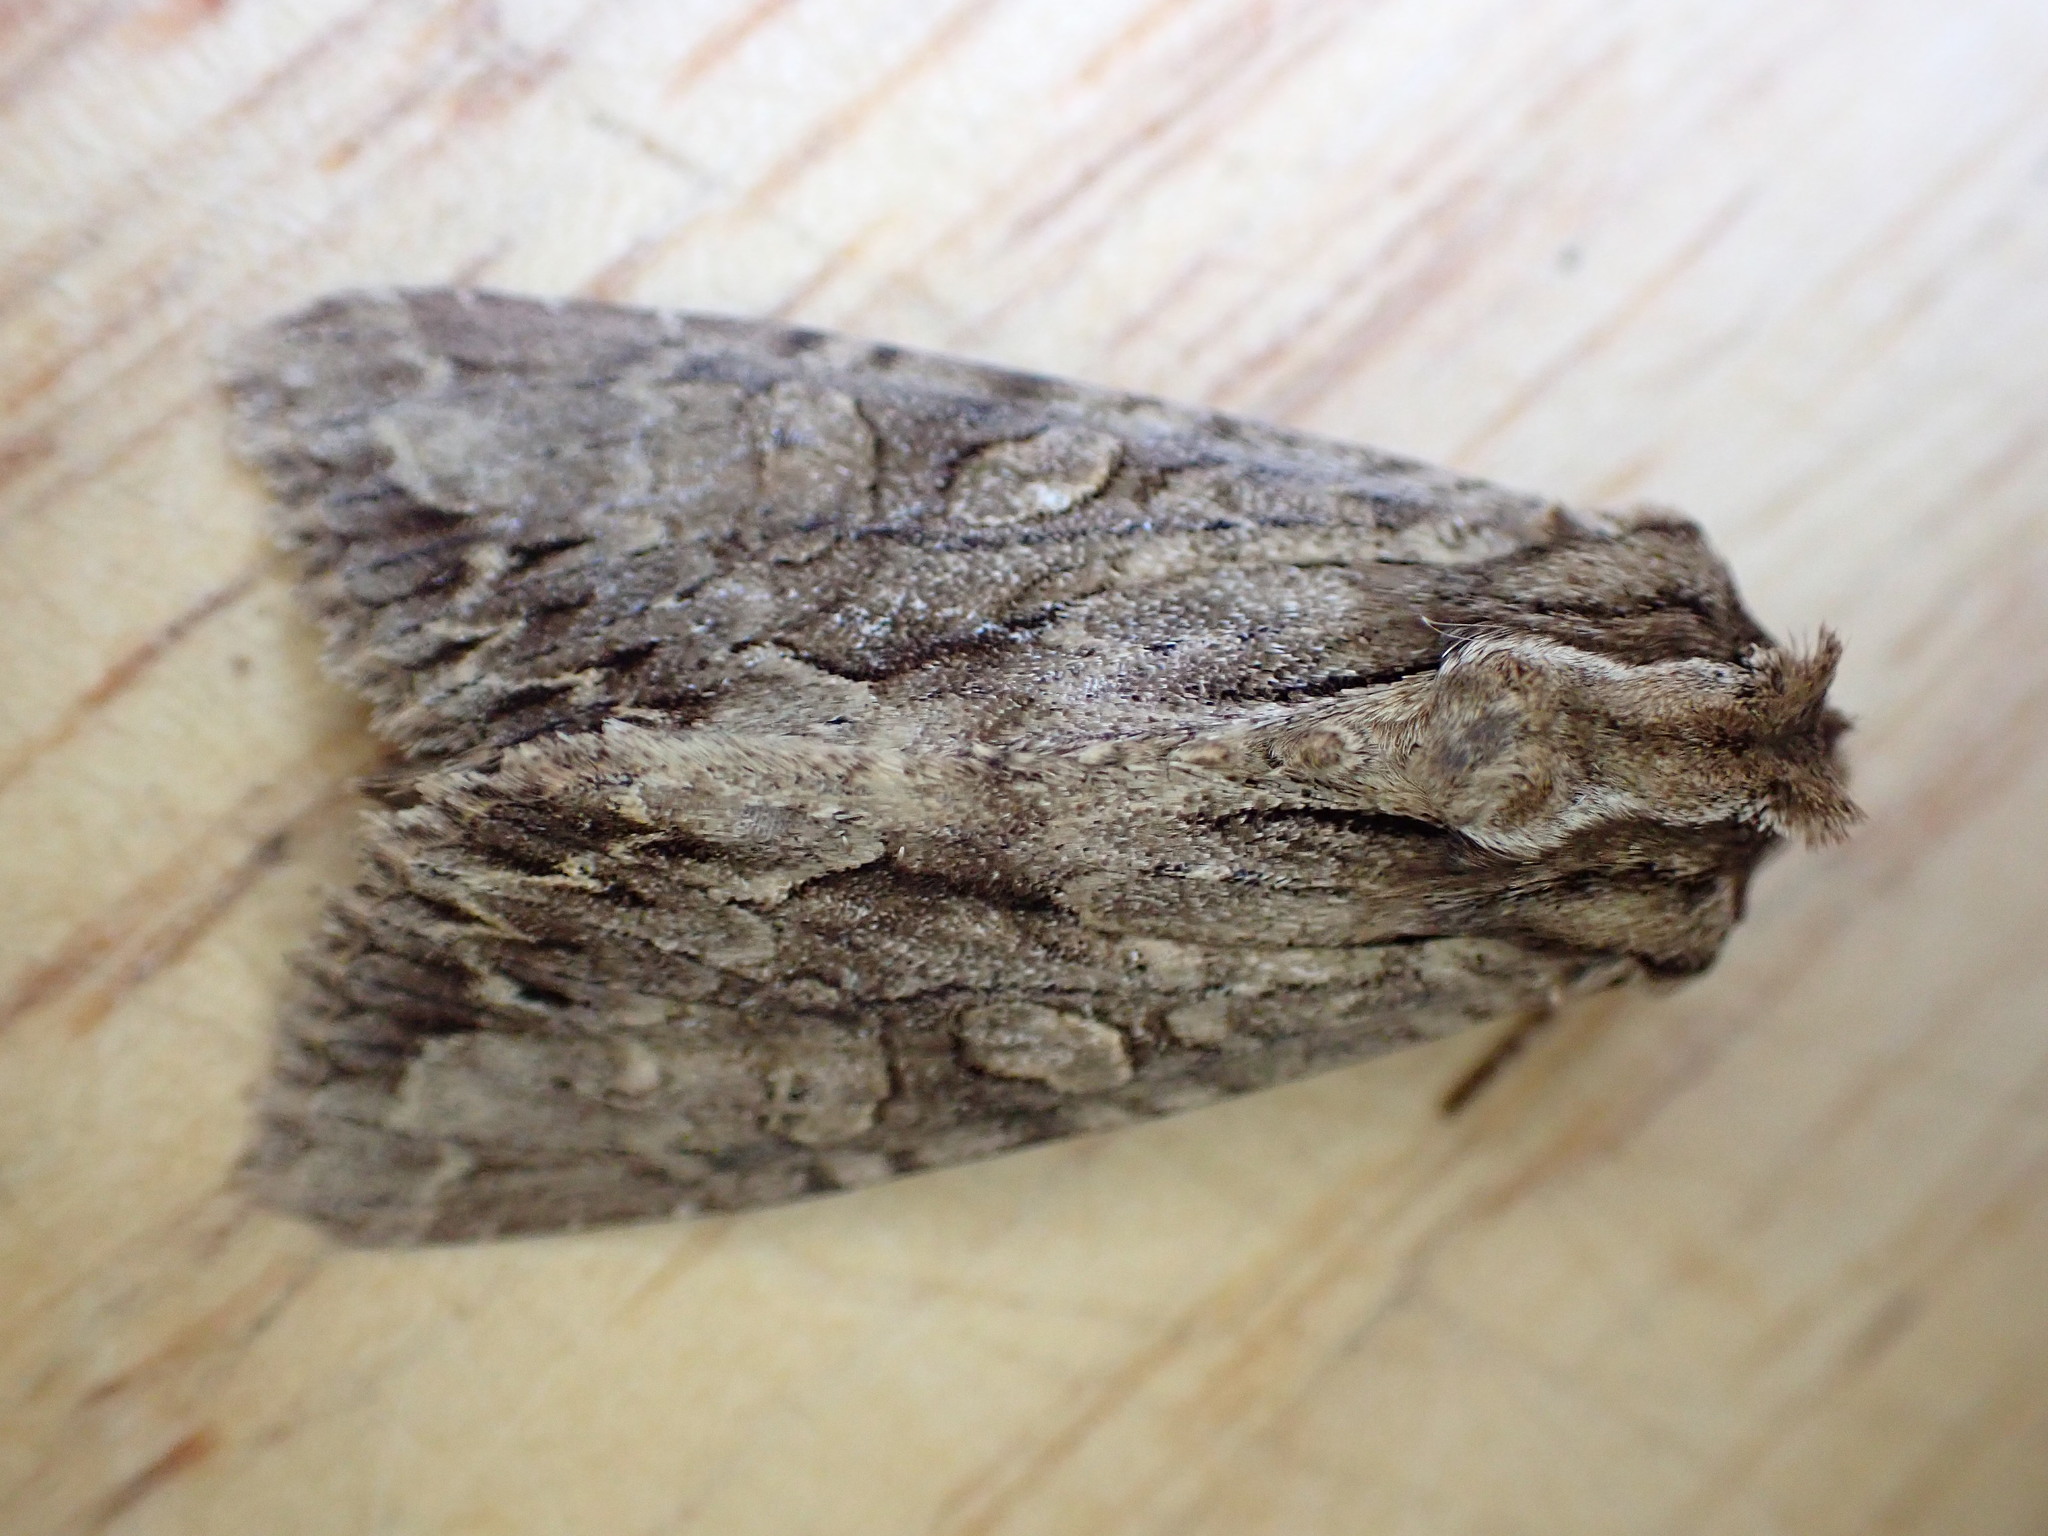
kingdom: Animalia
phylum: Arthropoda
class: Insecta
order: Lepidoptera
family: Noctuidae
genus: Apamea
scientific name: Apamea monoglypha
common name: Dark arches
